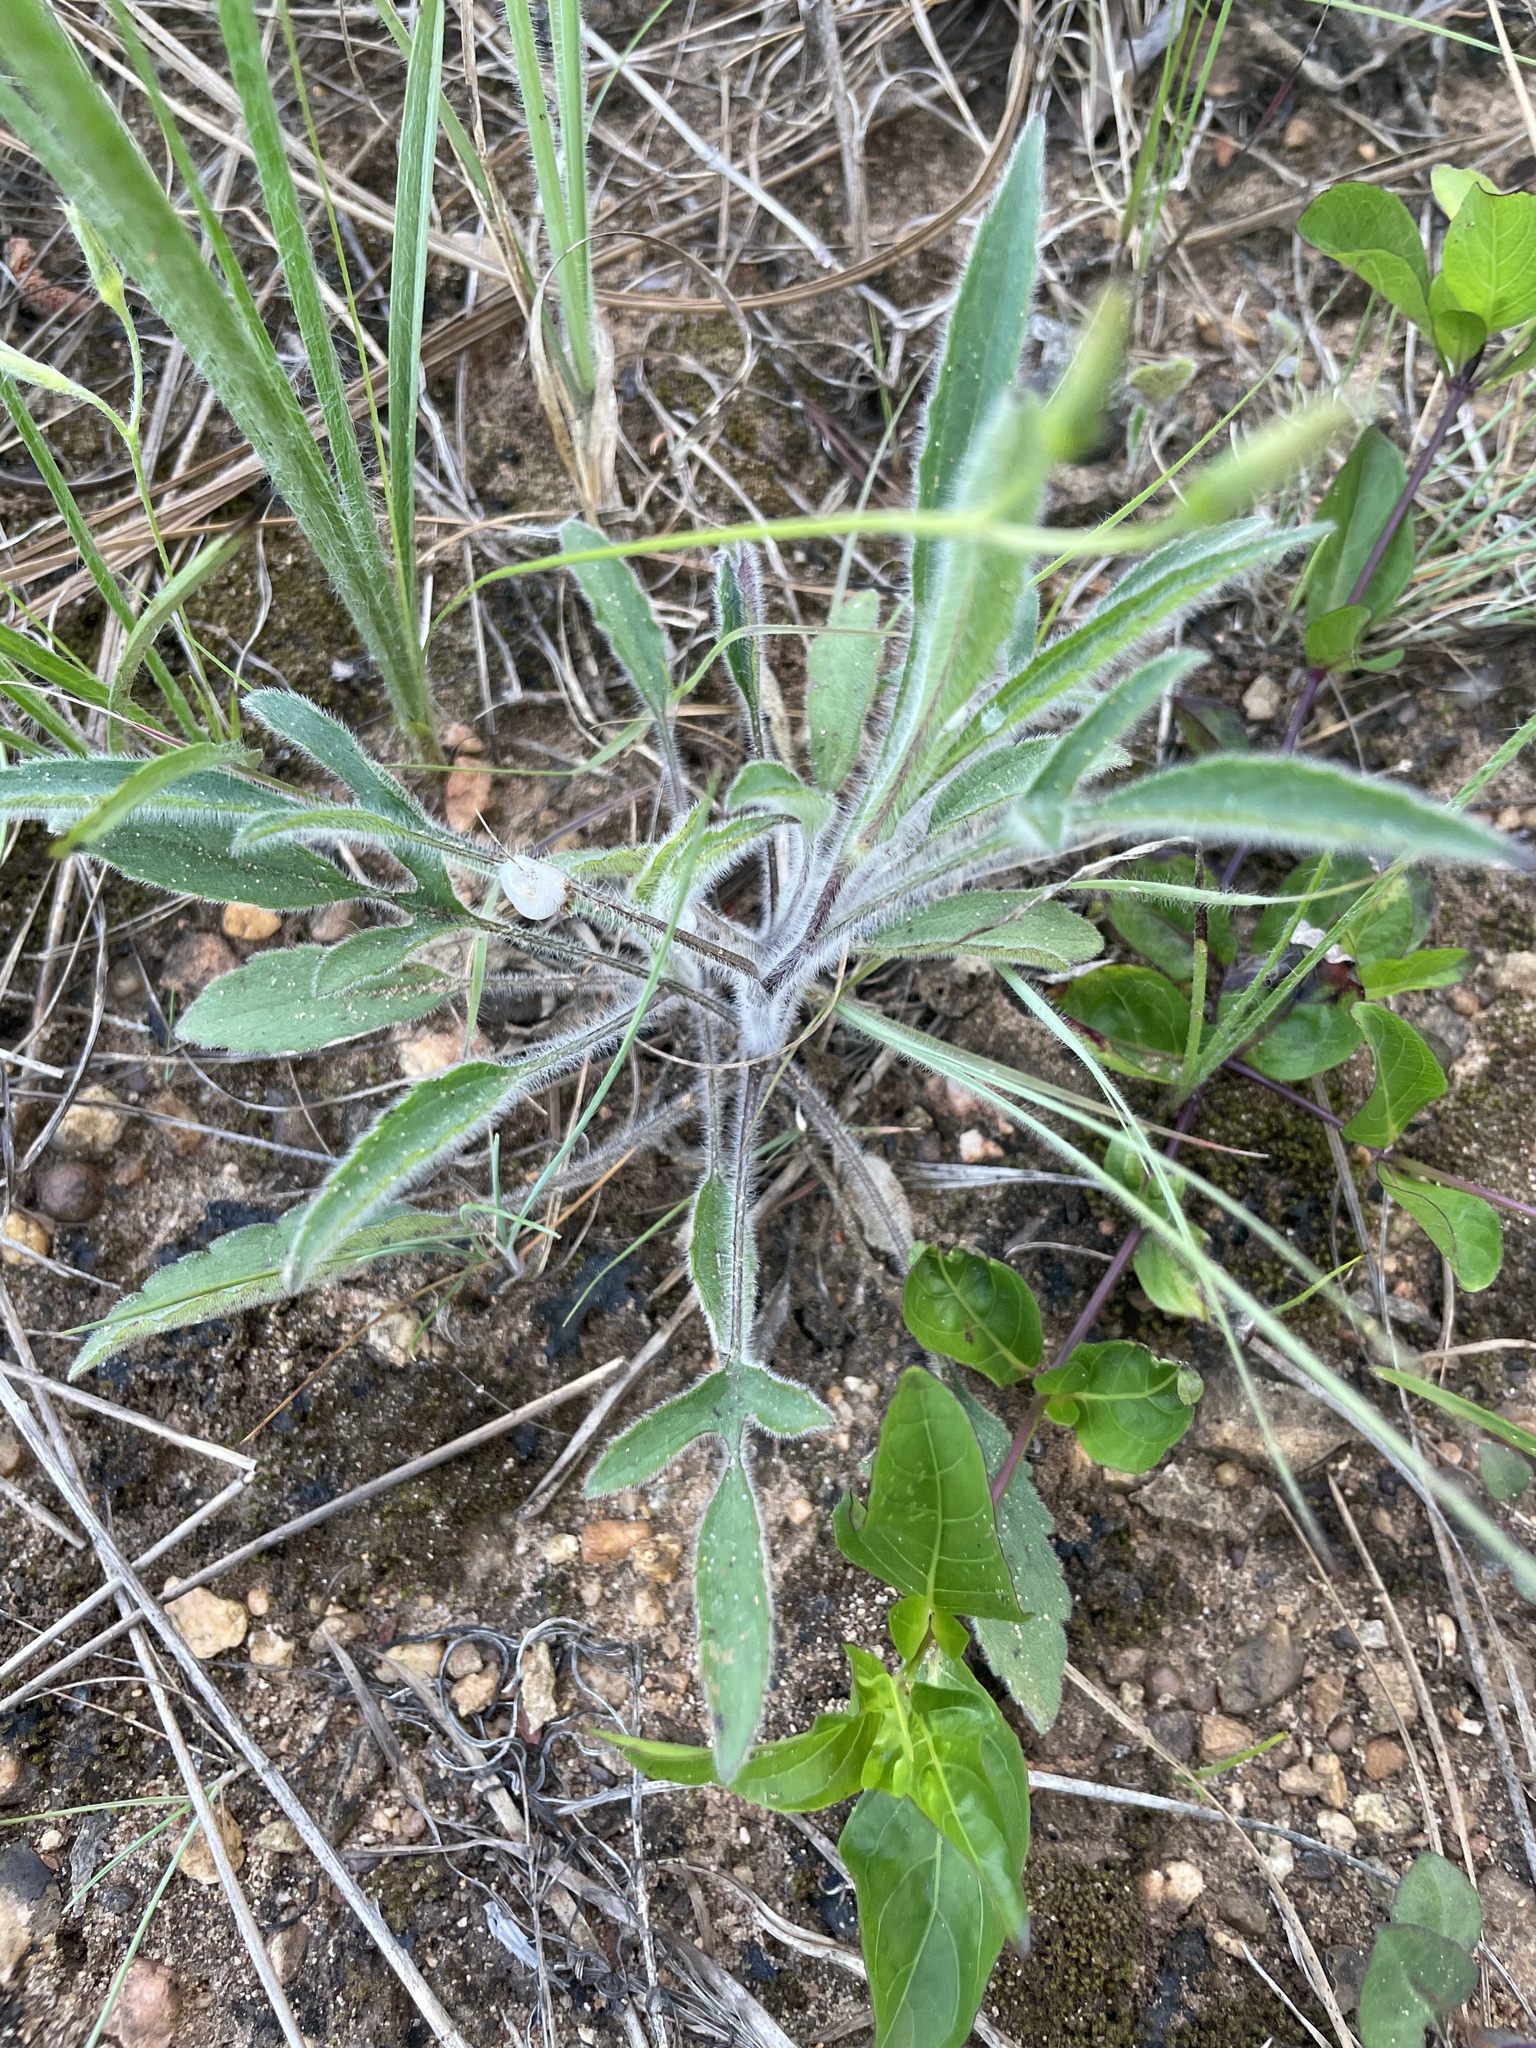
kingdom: Plantae
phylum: Tracheophyta
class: Magnoliopsida
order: Asterales
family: Asteraceae
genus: Rudbeckia
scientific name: Rudbeckia triloba
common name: Thin-leaved coneflower
